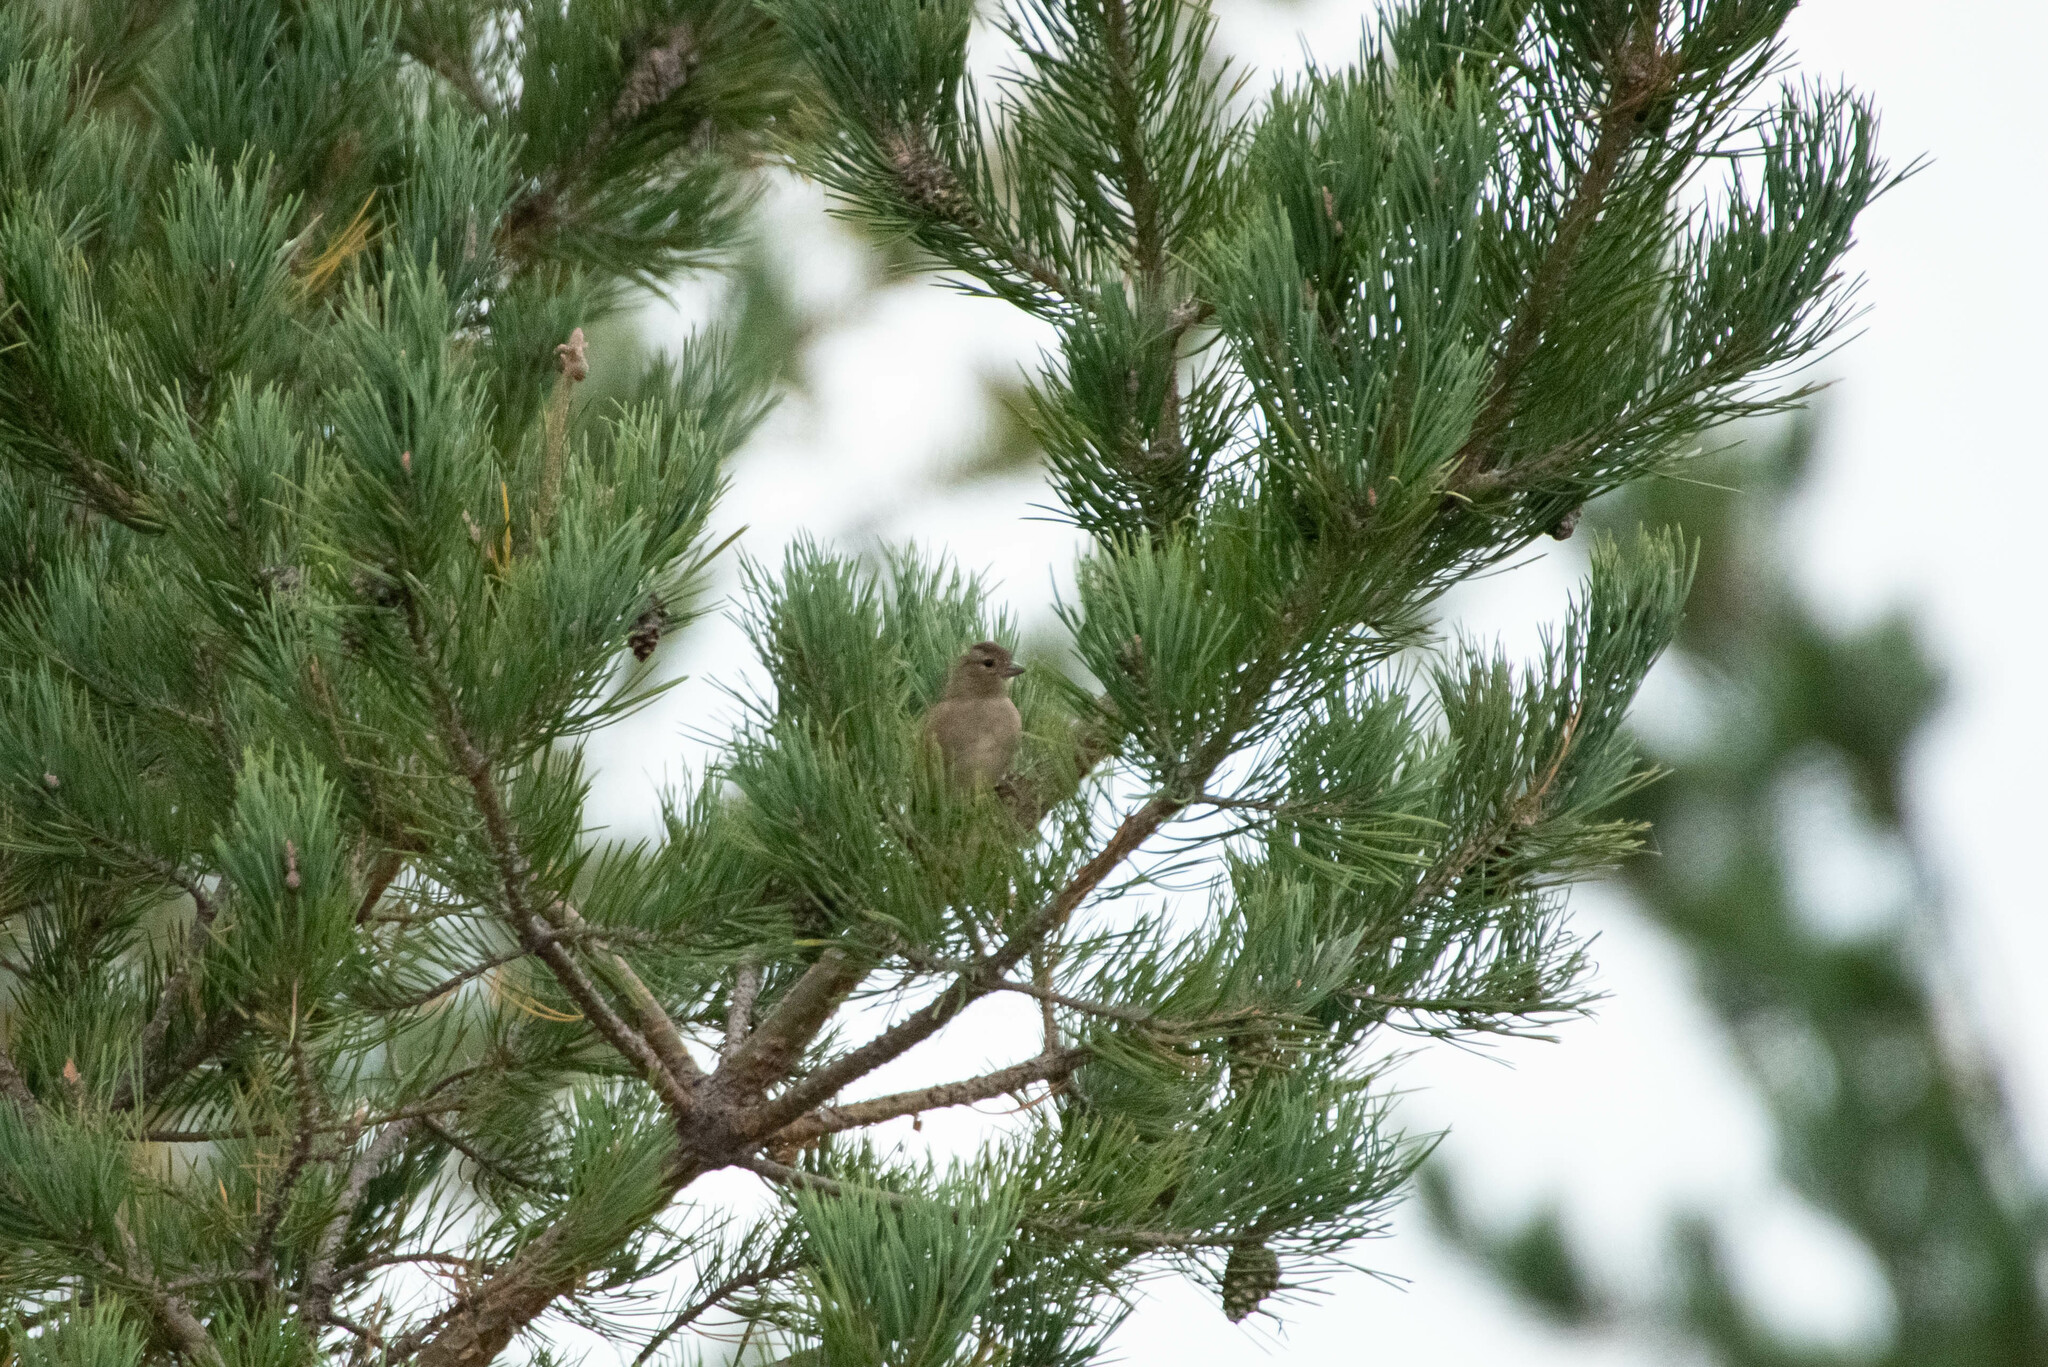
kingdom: Animalia
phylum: Chordata
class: Aves
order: Passeriformes
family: Fringillidae
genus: Fringilla
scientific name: Fringilla coelebs
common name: Common chaffinch
